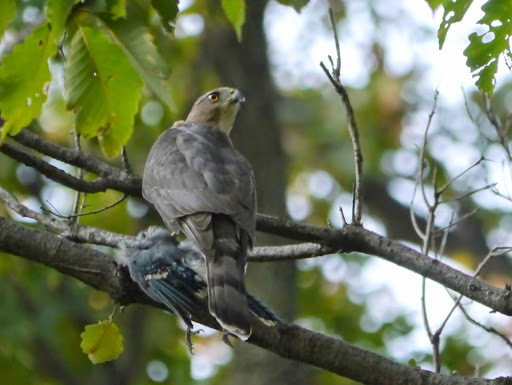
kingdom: Animalia
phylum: Chordata
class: Aves
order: Accipitriformes
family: Accipitridae
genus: Accipiter
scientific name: Accipiter cooperii
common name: Cooper's hawk
